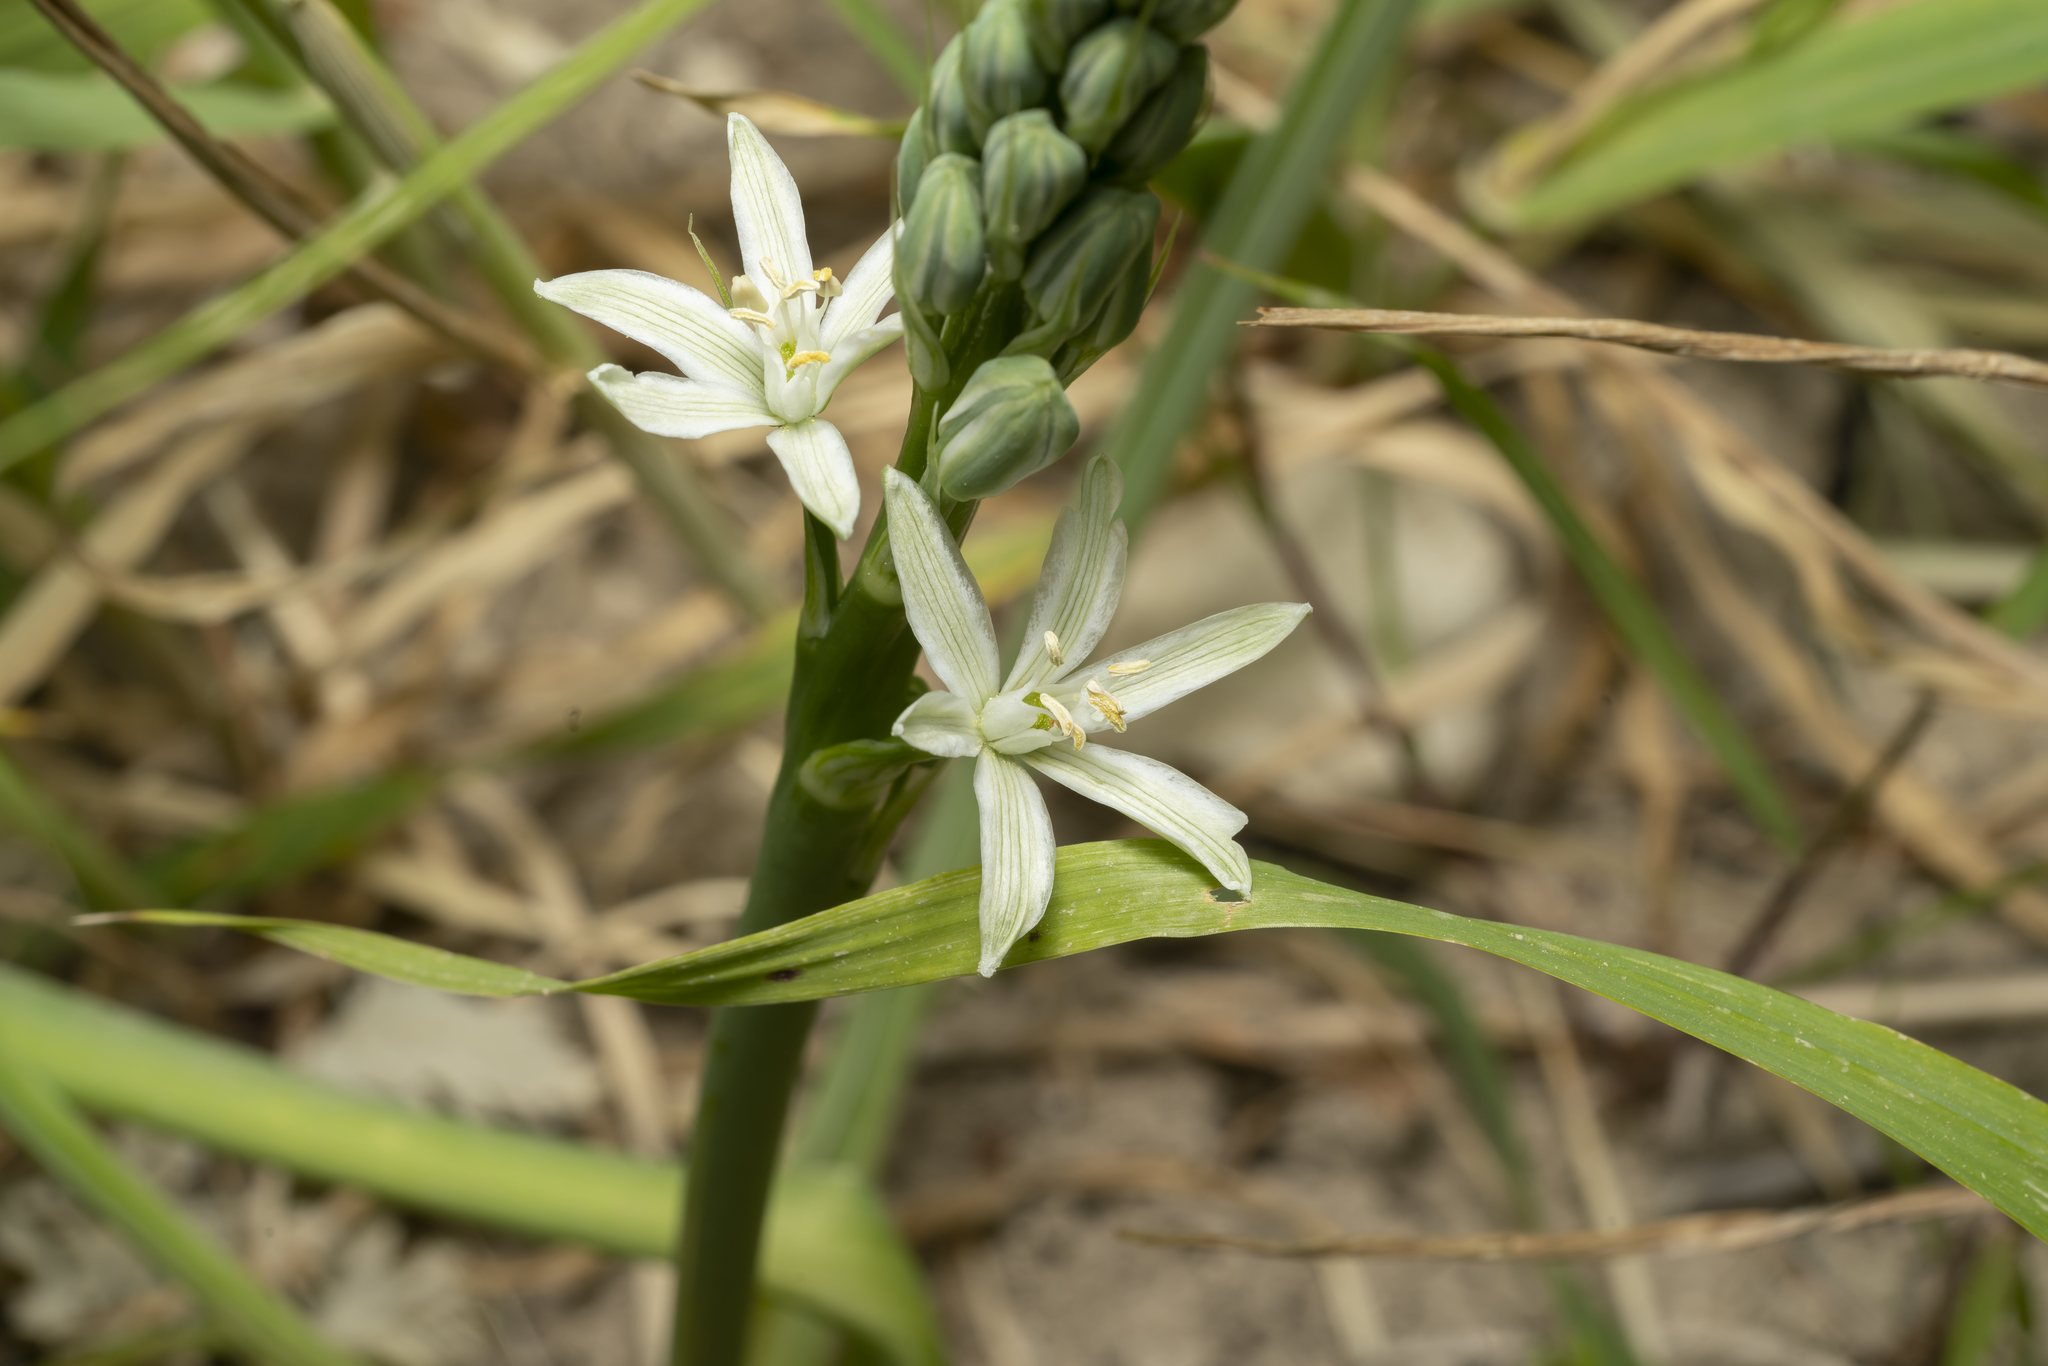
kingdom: Plantae
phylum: Tracheophyta
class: Liliopsida
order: Asparagales
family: Asparagaceae
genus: Ornithogalum
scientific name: Ornithogalum narbonense
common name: Bath-asparagus
